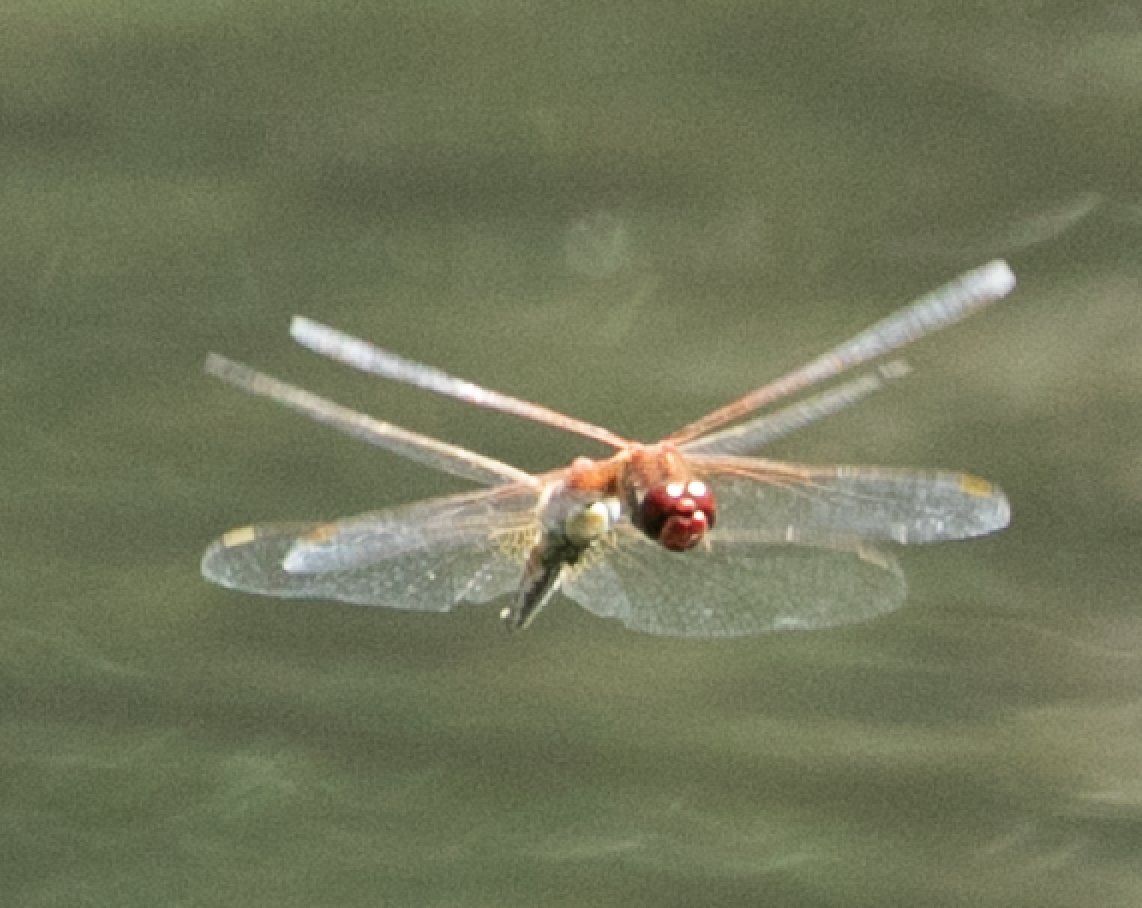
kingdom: Animalia
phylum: Arthropoda
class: Insecta
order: Odonata
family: Libellulidae
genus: Sympetrum
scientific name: Sympetrum fonscolombii
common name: Red-veined darter
